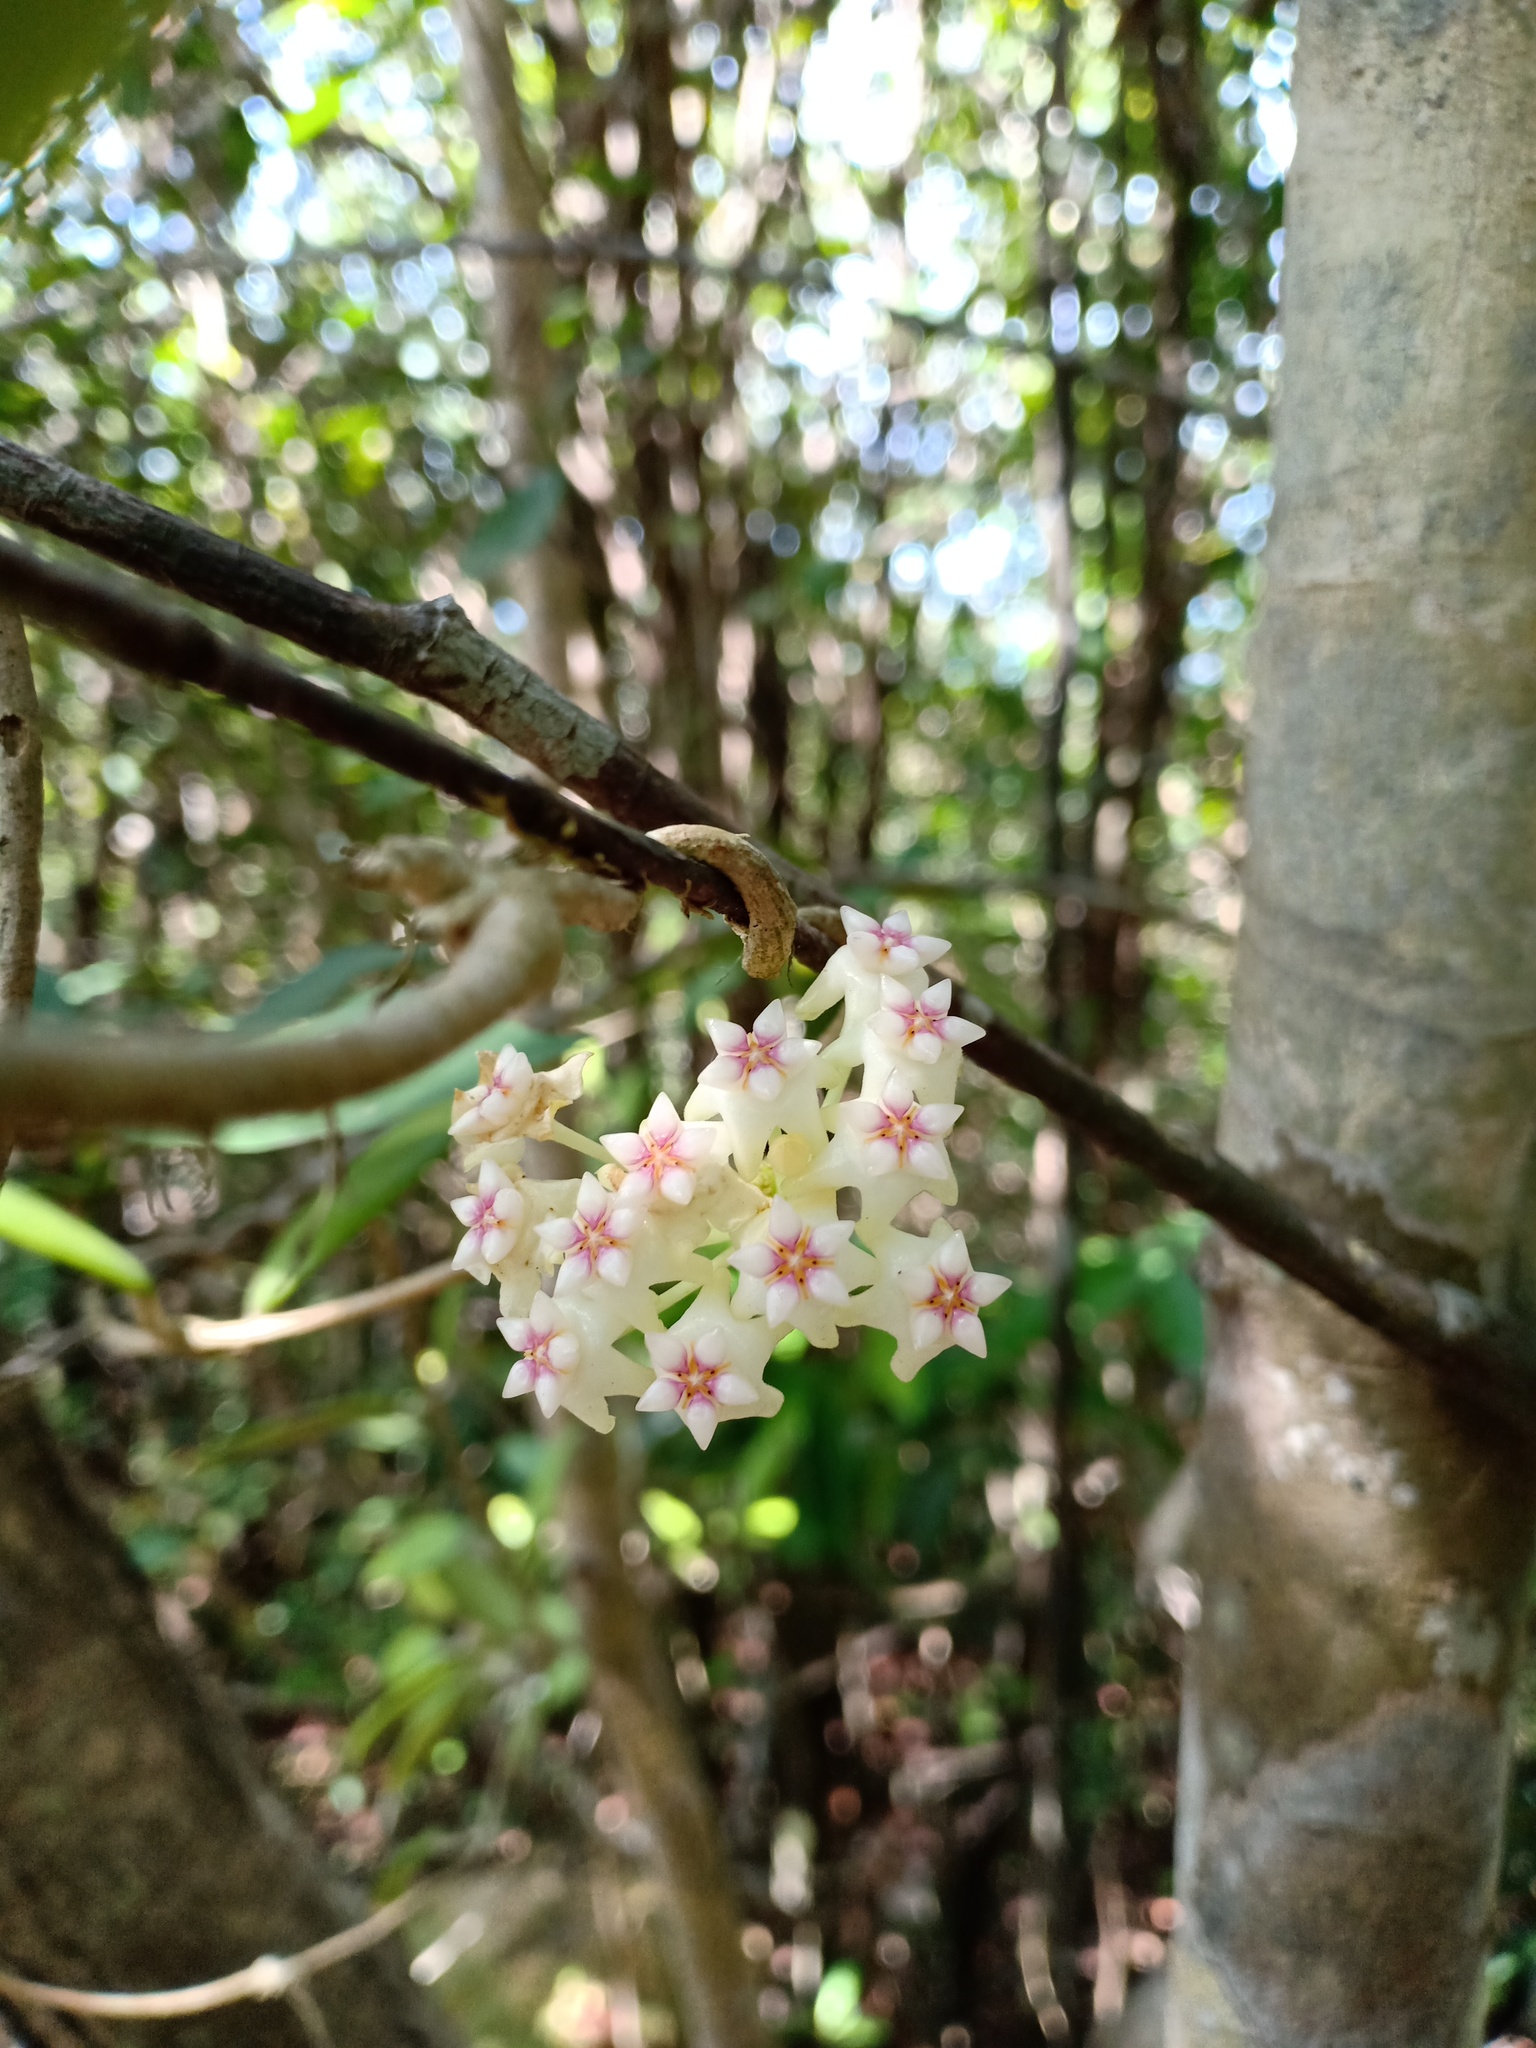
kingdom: Plantae
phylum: Tracheophyta
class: Magnoliopsida
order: Gentianales
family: Apocynaceae
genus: Hoya
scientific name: Hoya verticillata
